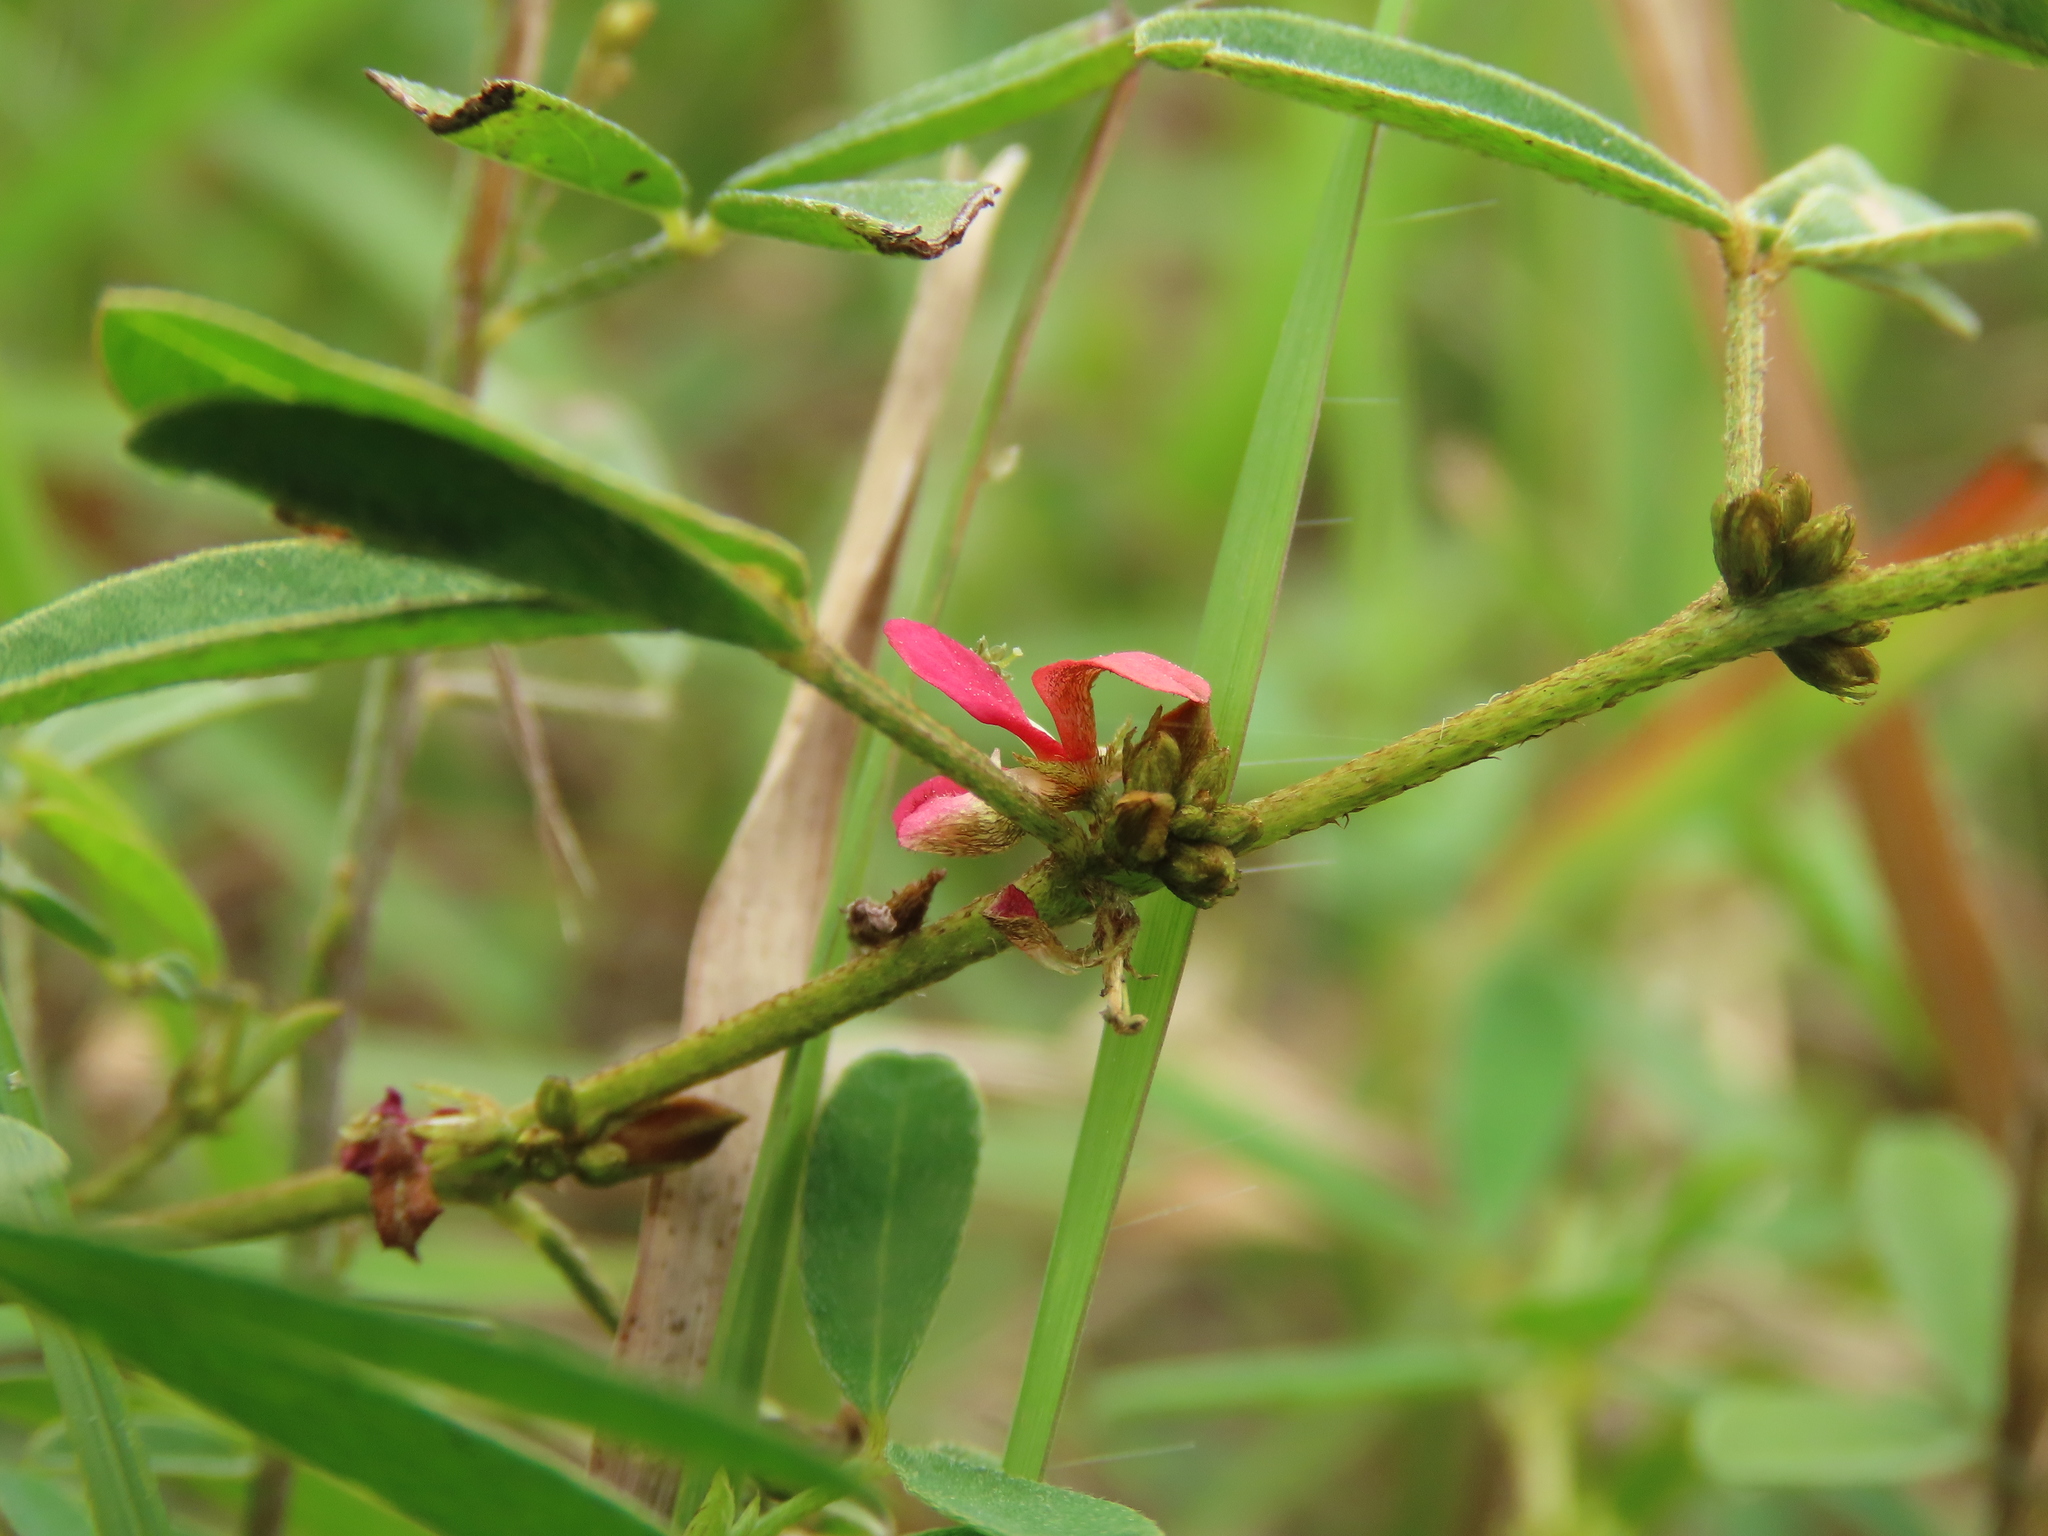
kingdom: Plantae
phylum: Tracheophyta
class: Magnoliopsida
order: Fabales
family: Fabaceae
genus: Indigofera
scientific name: Indigofera trifoliata
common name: Threeleaf indigo
